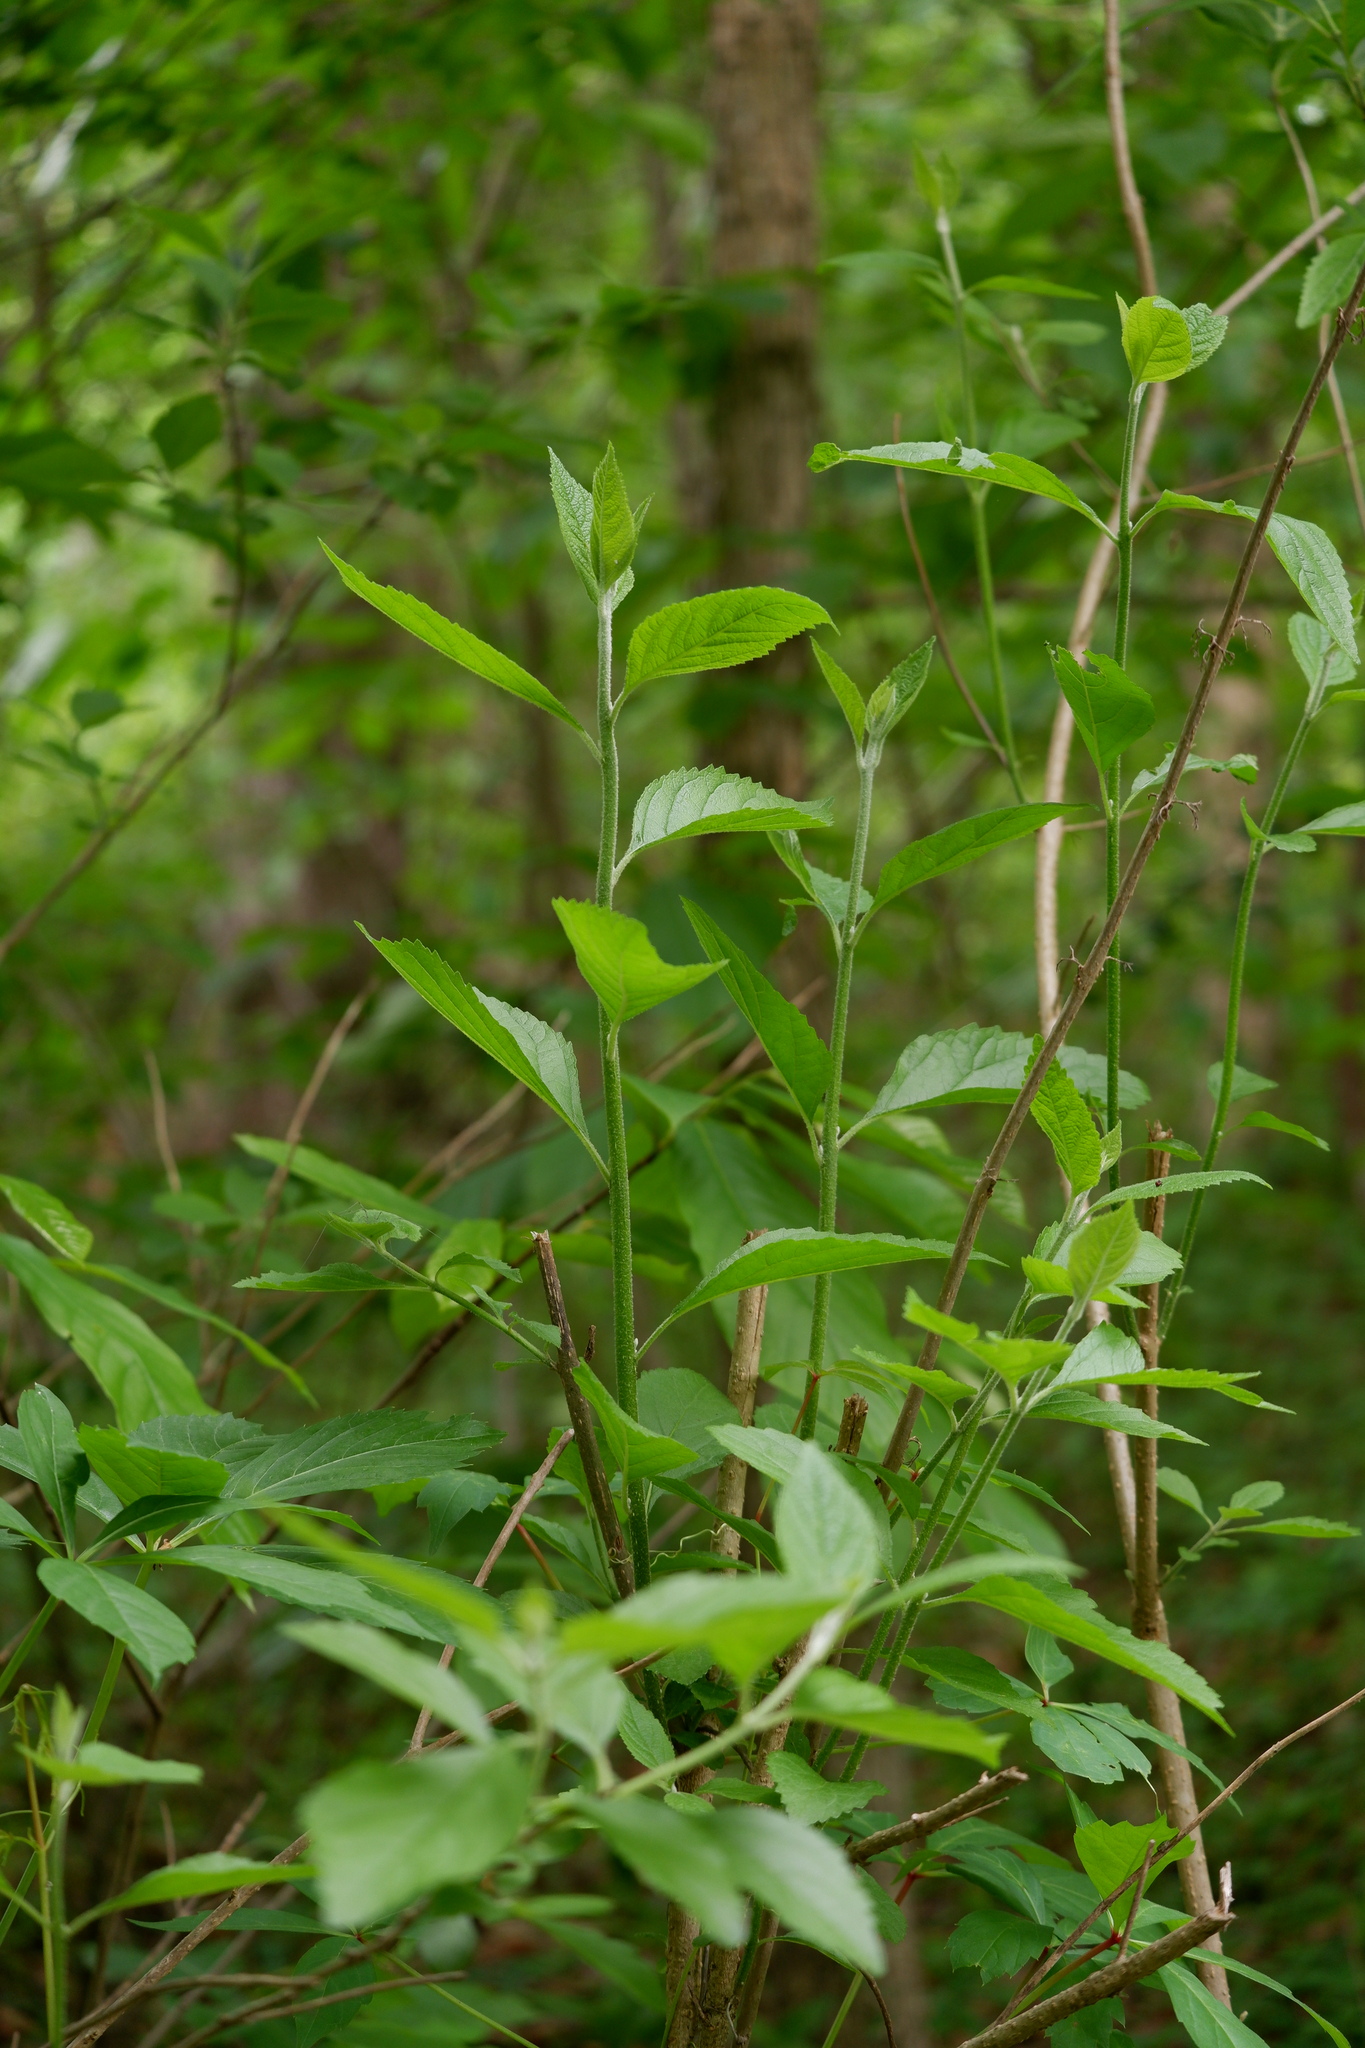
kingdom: Plantae
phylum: Tracheophyta
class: Magnoliopsida
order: Lamiales
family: Lamiaceae
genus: Callicarpa
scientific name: Callicarpa americana
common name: American beautyberry
